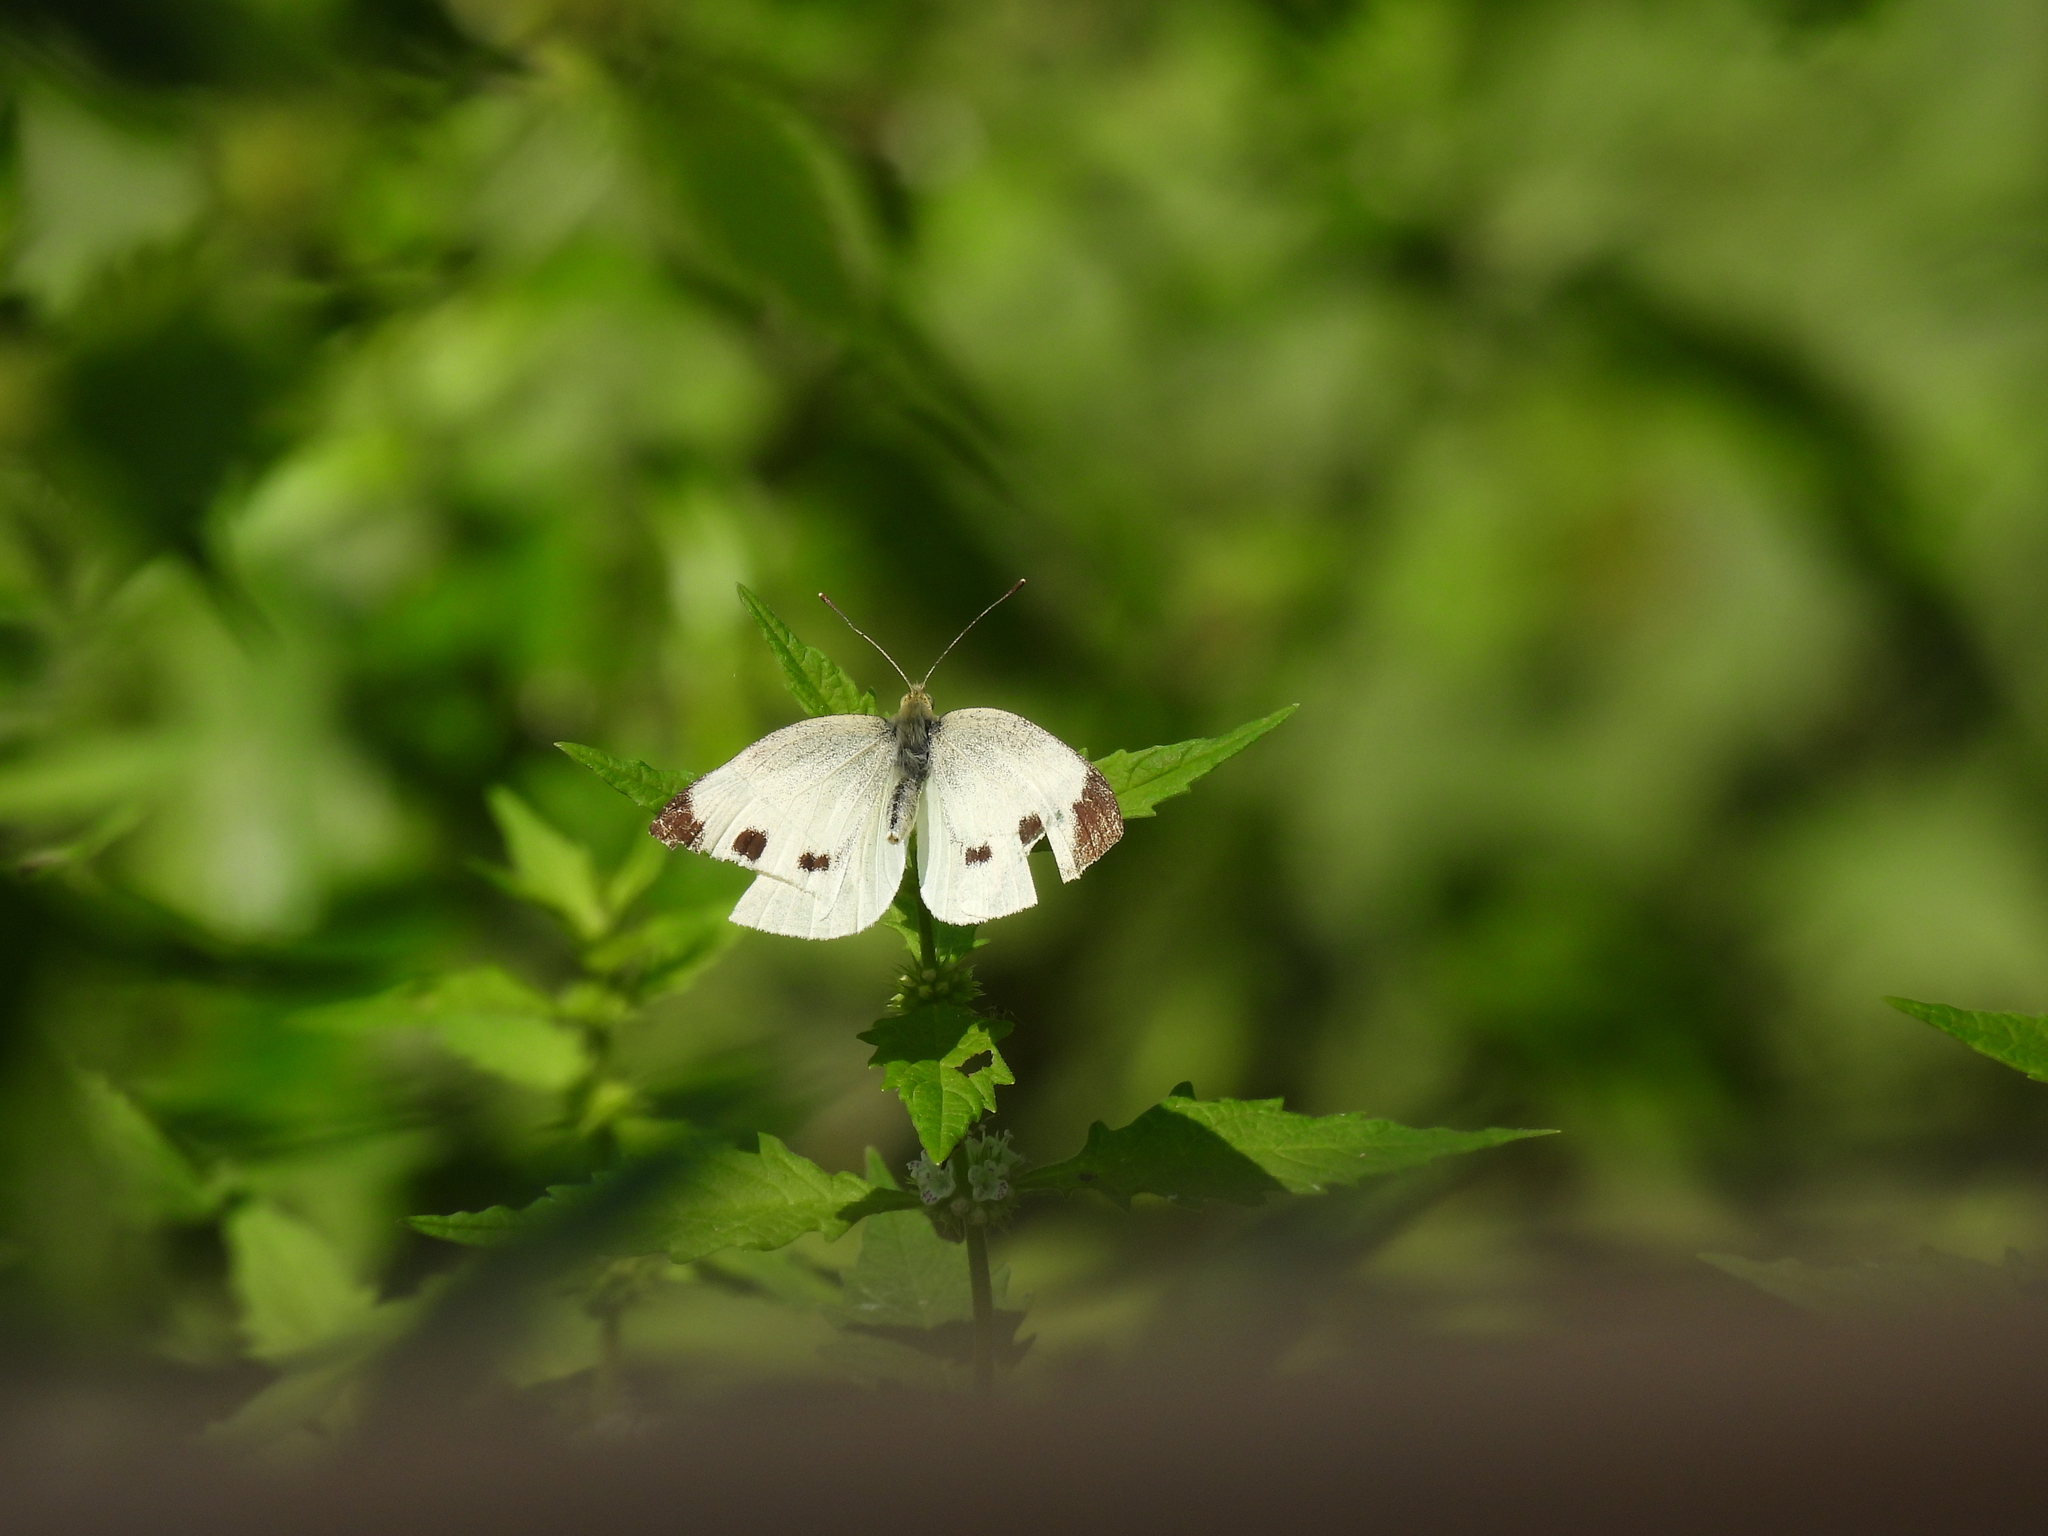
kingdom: Animalia
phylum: Arthropoda
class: Insecta
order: Lepidoptera
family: Pieridae
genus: Pieris
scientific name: Pieris rapae
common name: Small white
